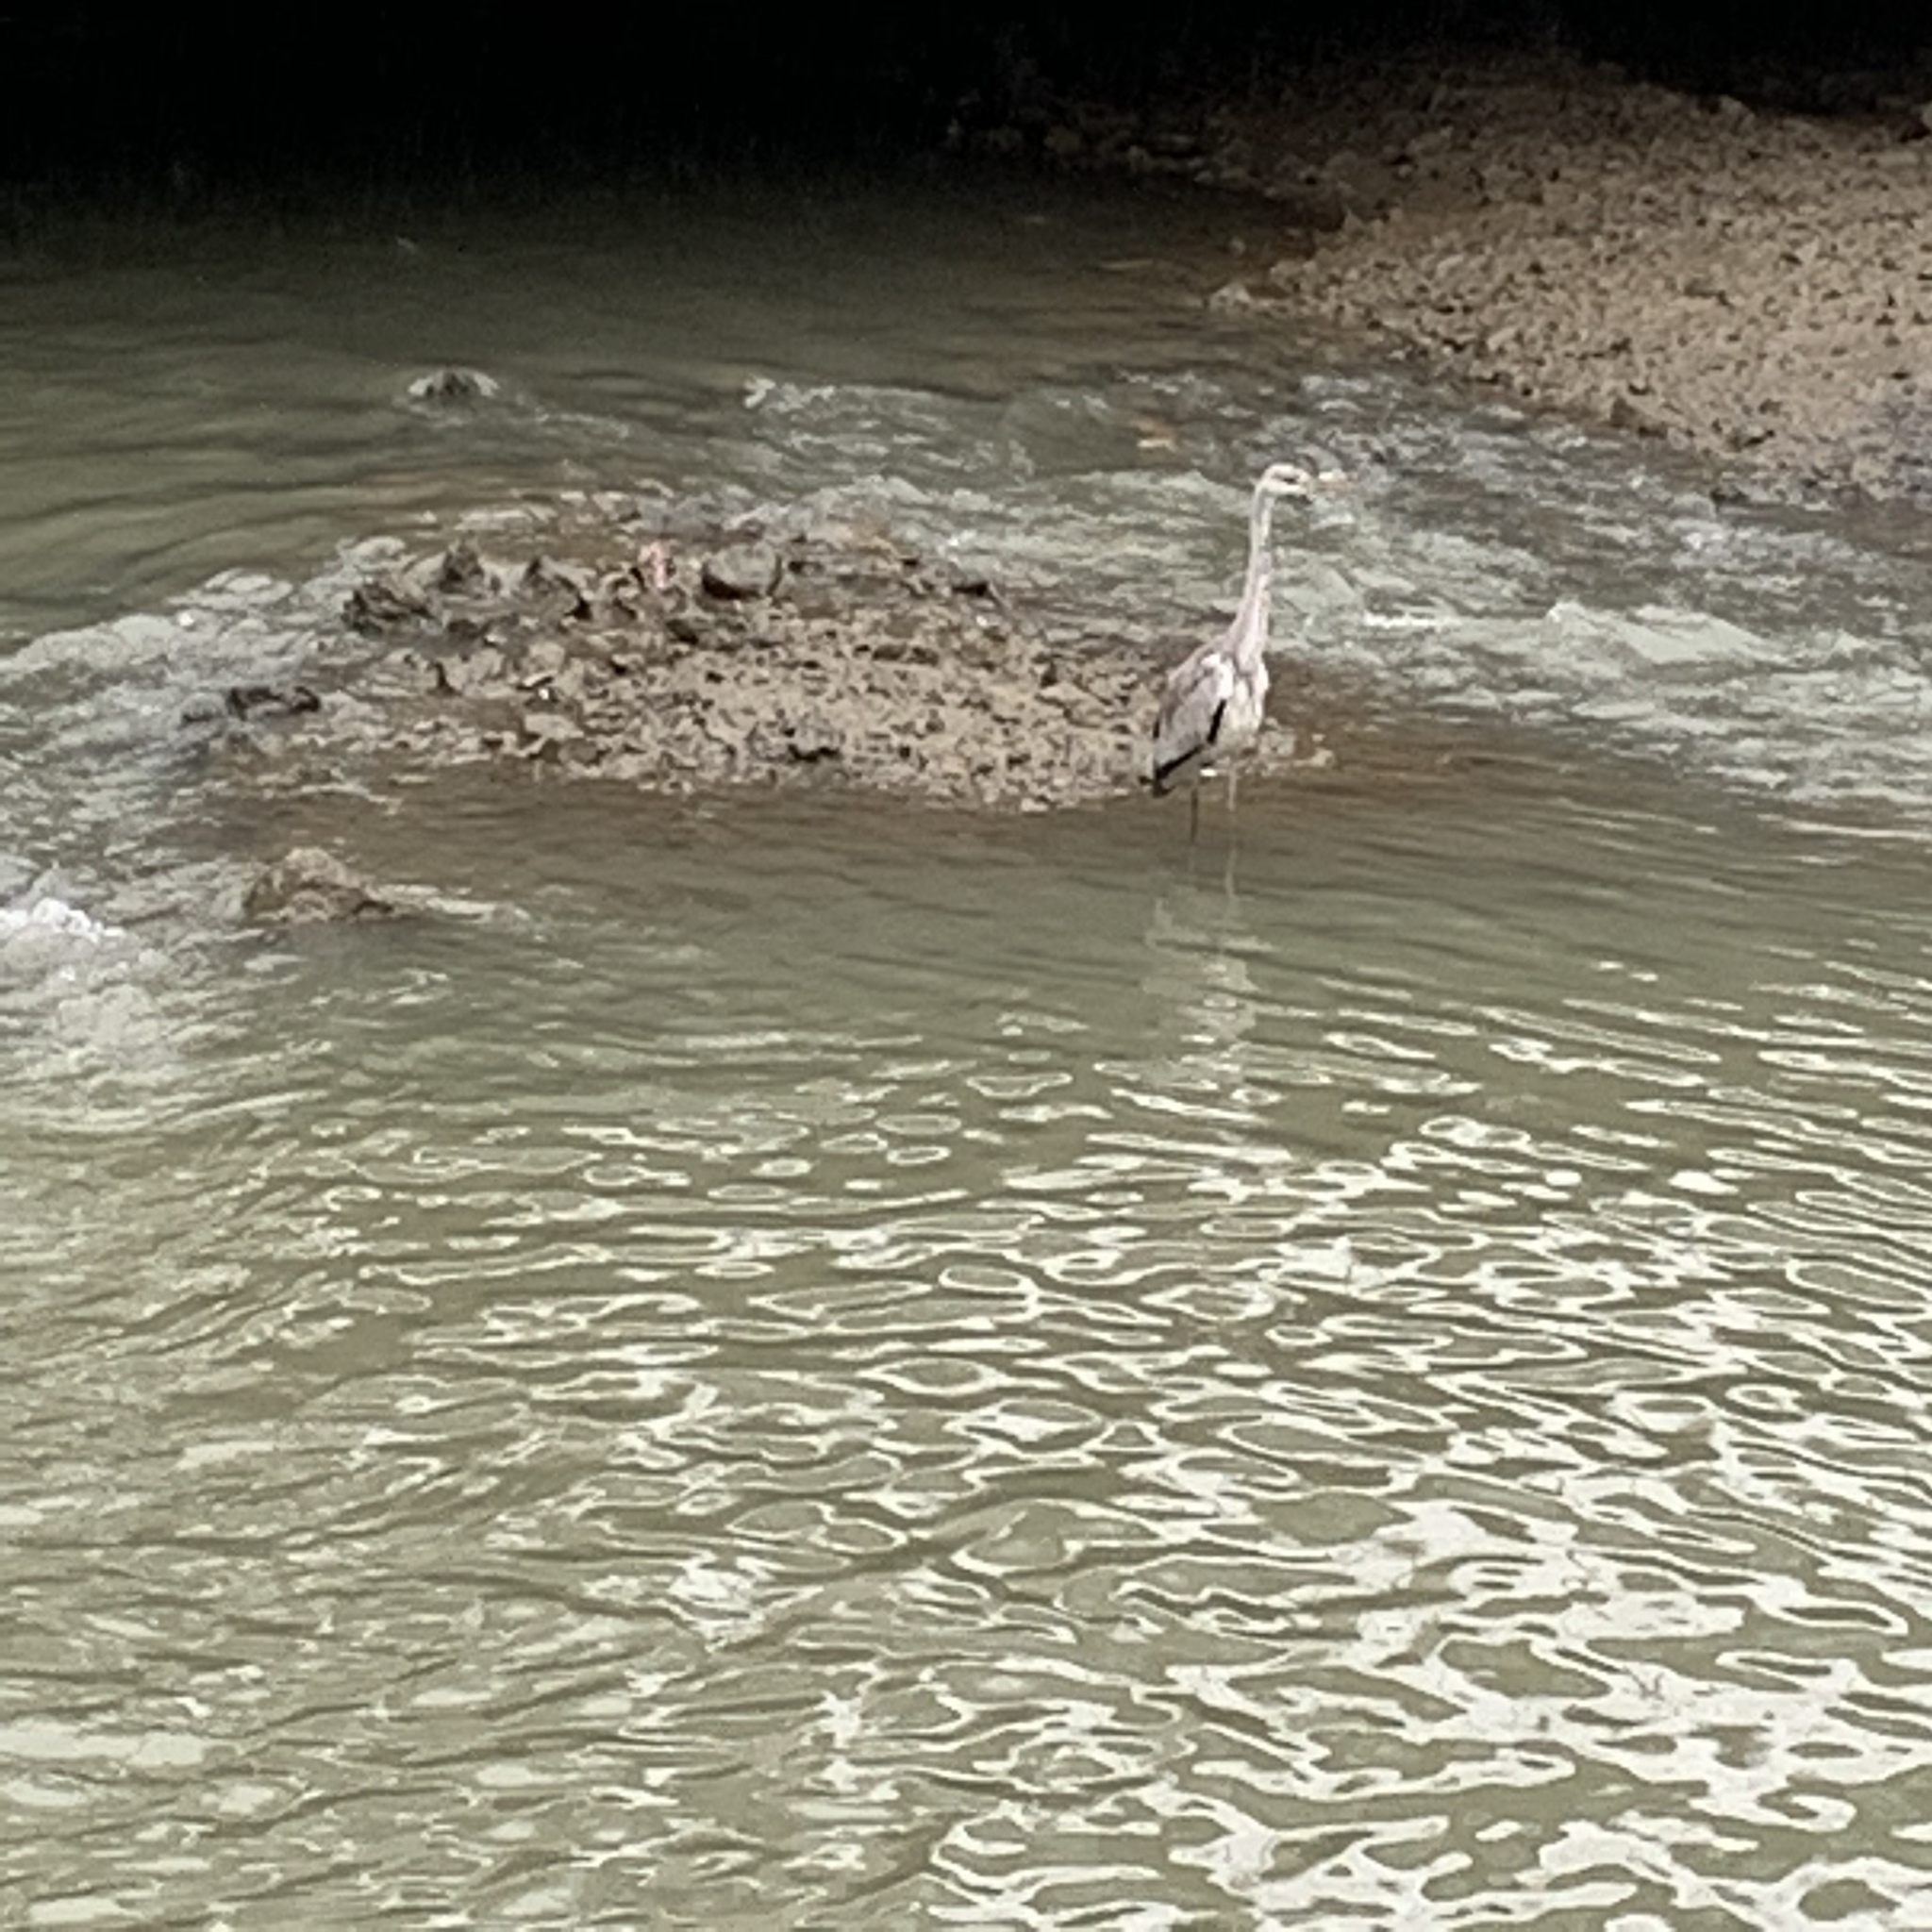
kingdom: Animalia
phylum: Chordata
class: Aves
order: Pelecaniformes
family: Ardeidae
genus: Ardea
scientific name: Ardea cinerea
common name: Grey heron
